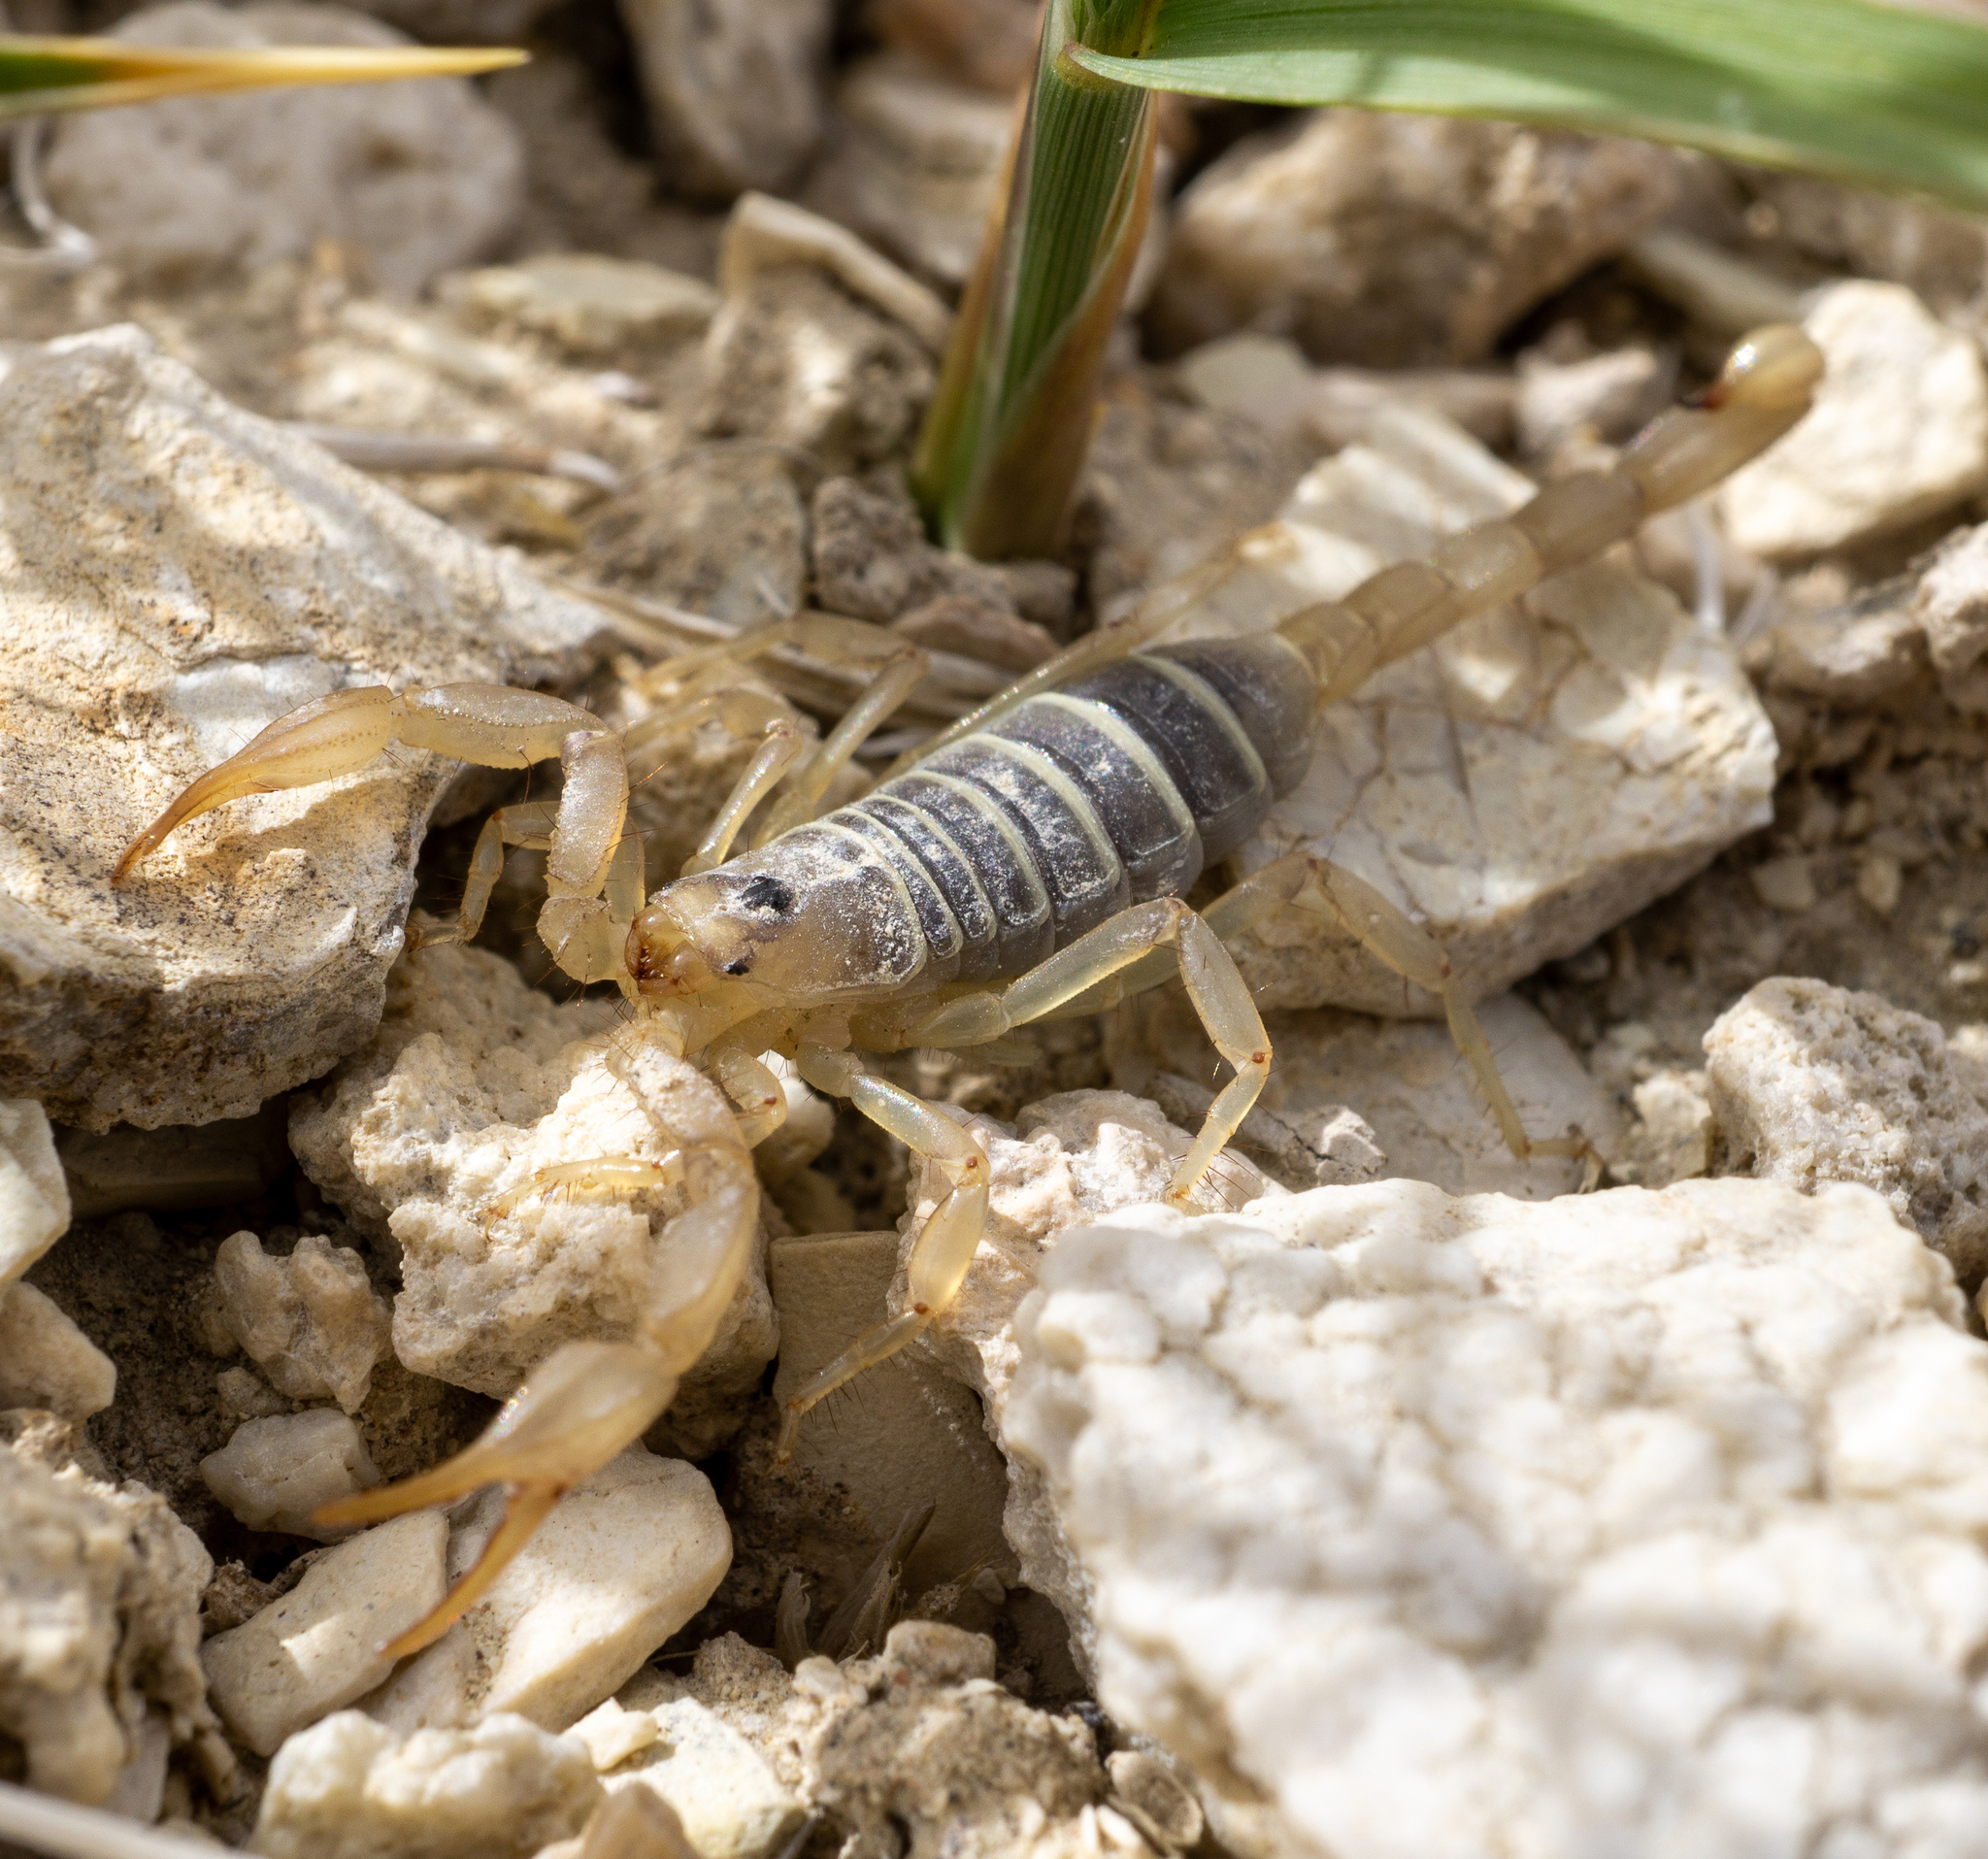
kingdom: Animalia
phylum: Arthropoda
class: Arachnida
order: Scorpiones
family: Vaejovidae
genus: Paruroctonus
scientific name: Paruroctonus becki
